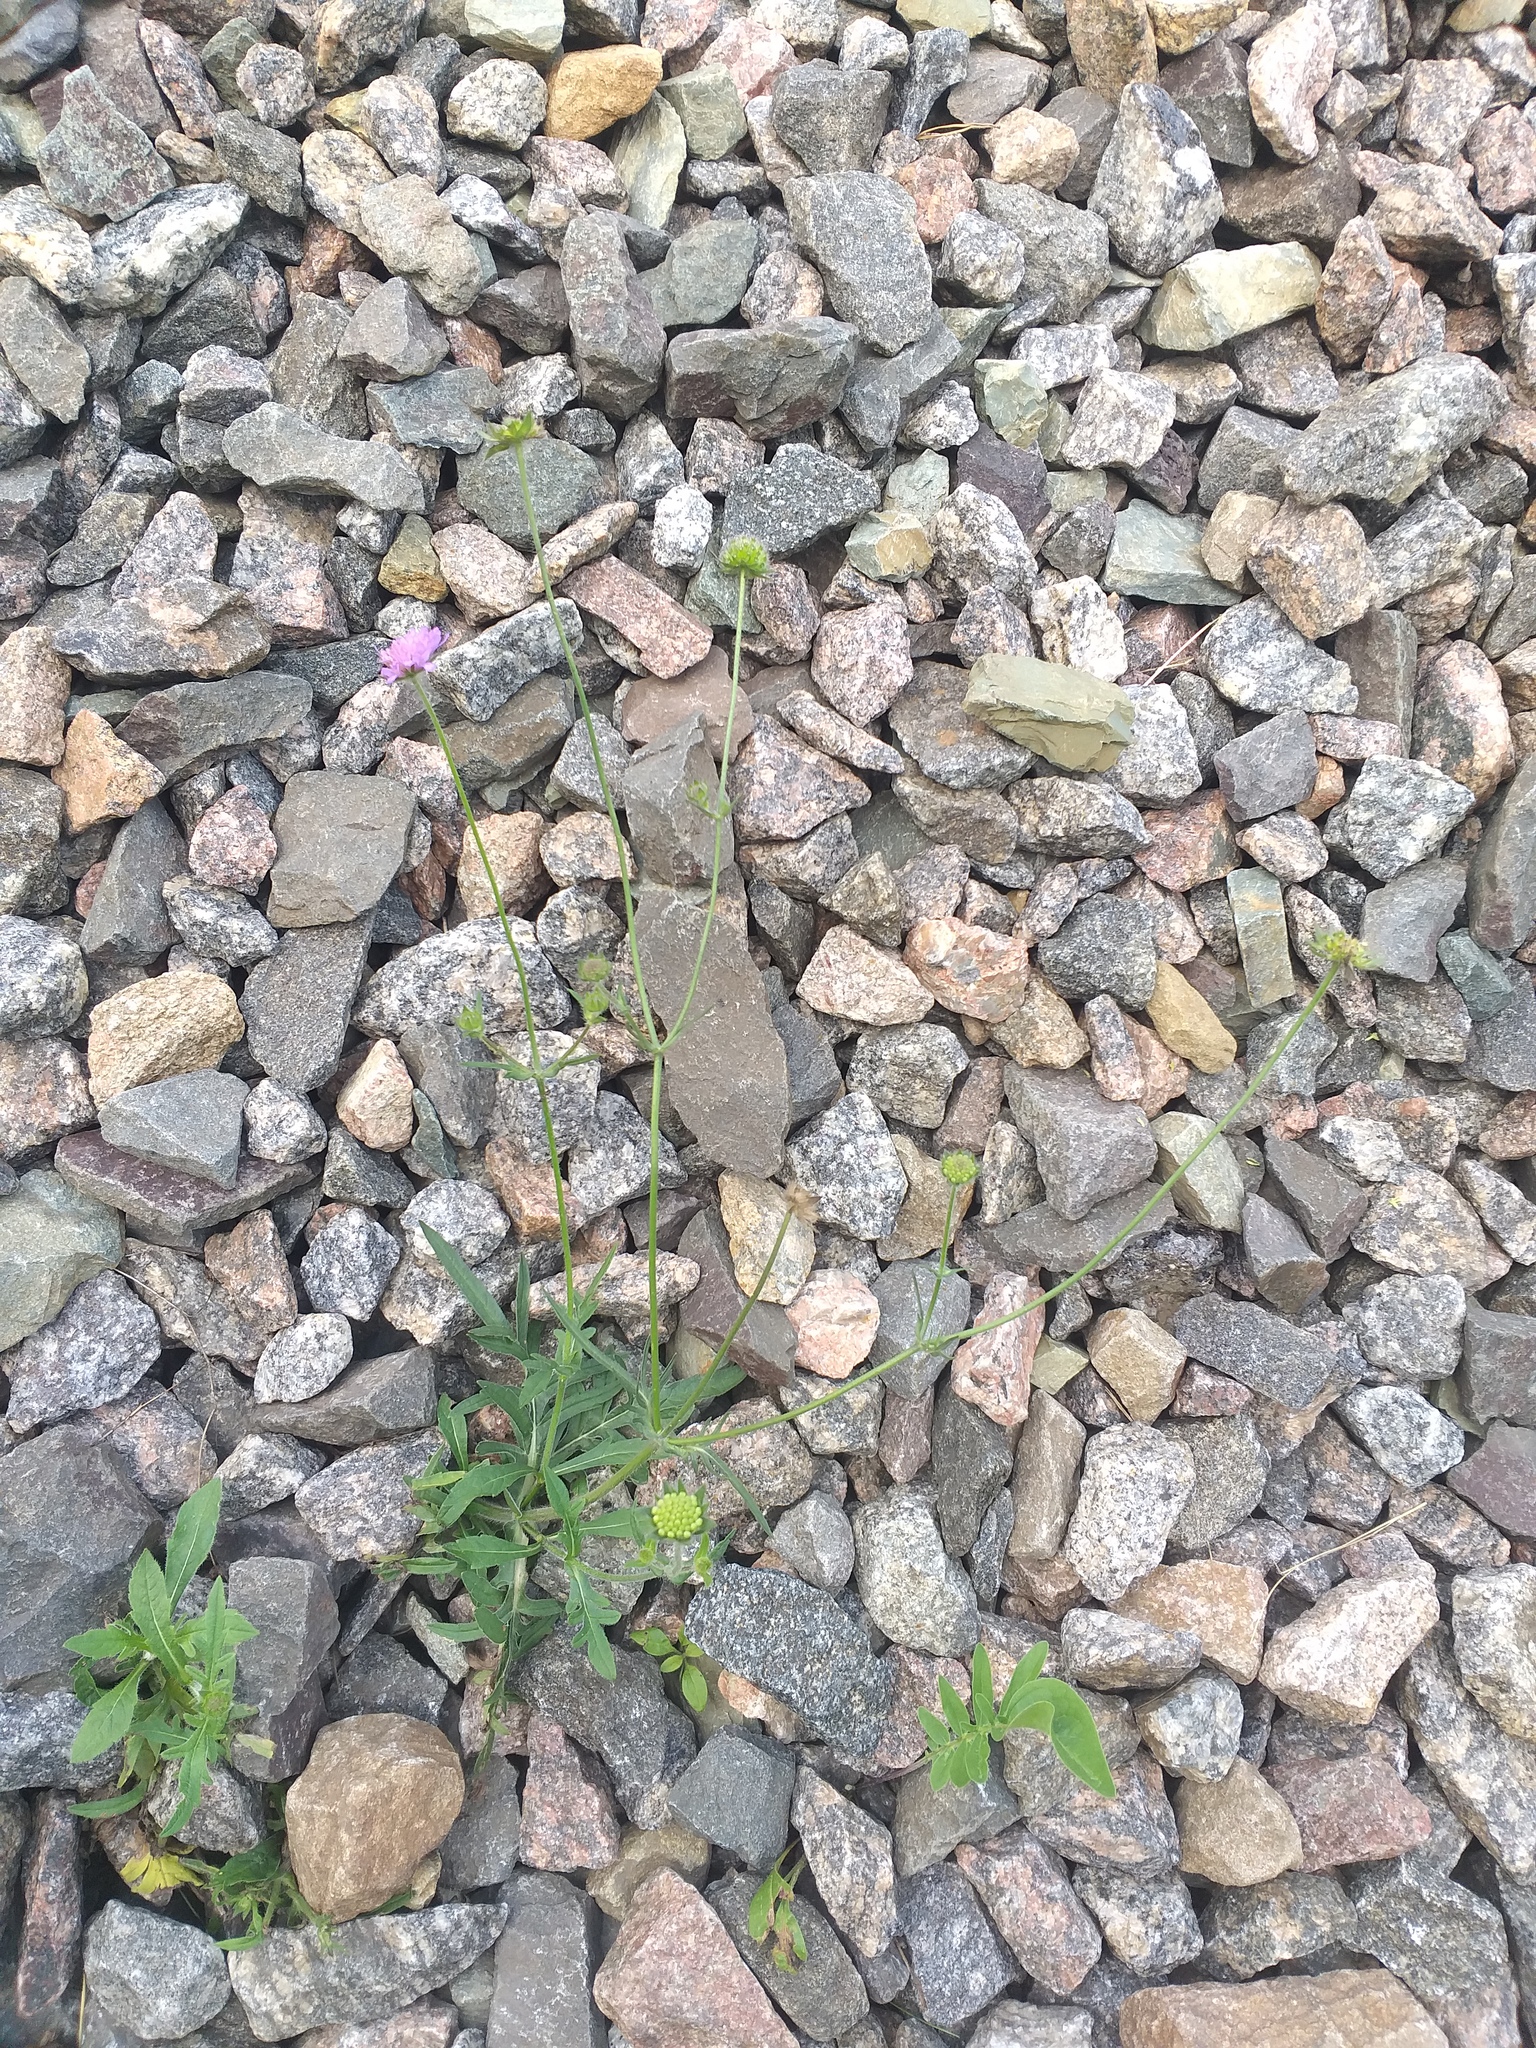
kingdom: Plantae
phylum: Tracheophyta
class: Magnoliopsida
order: Dipsacales
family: Caprifoliaceae
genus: Knautia
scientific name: Knautia arvensis
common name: Field scabiosa
